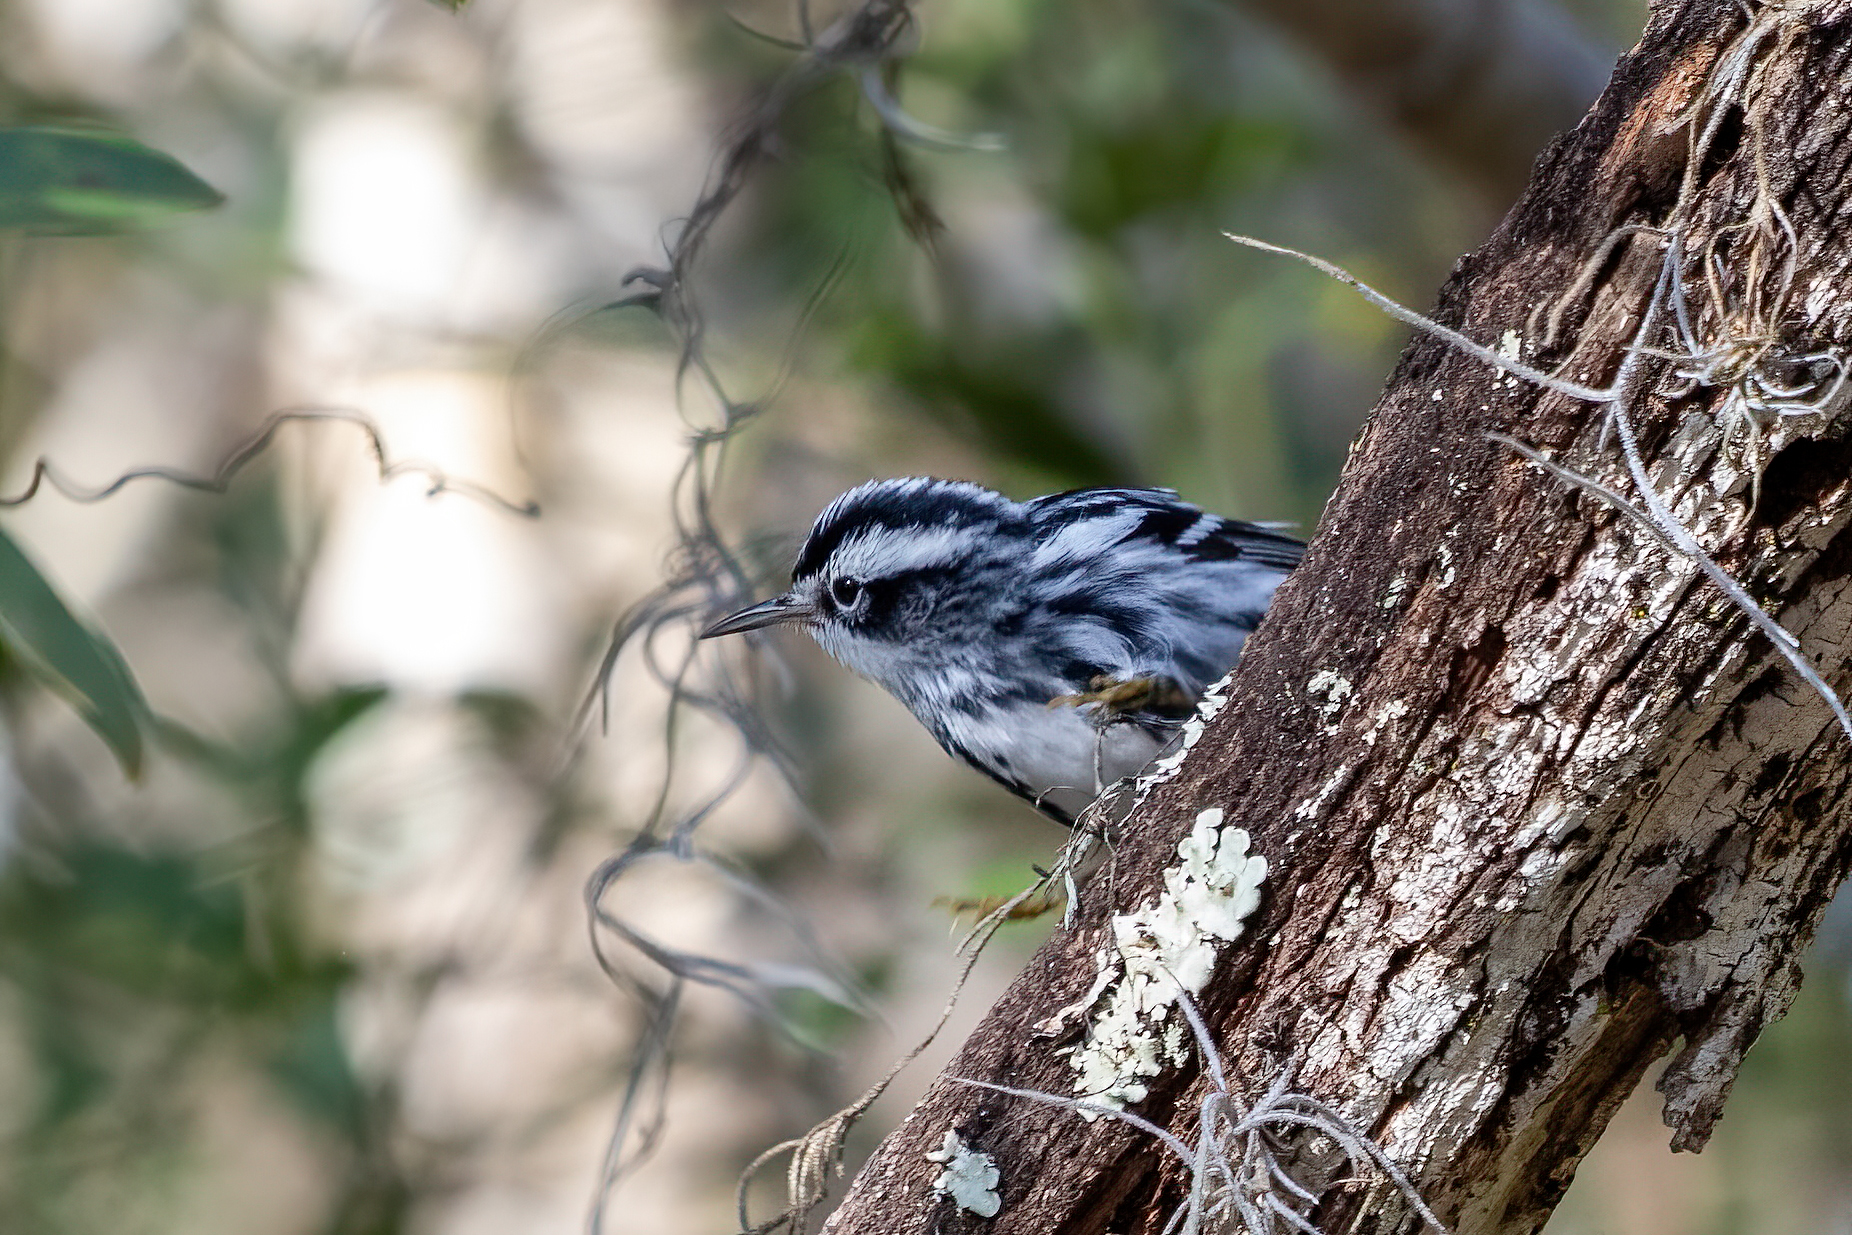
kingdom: Animalia
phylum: Chordata
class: Aves
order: Passeriformes
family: Parulidae
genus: Mniotilta
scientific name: Mniotilta varia
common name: Black-and-white warbler
